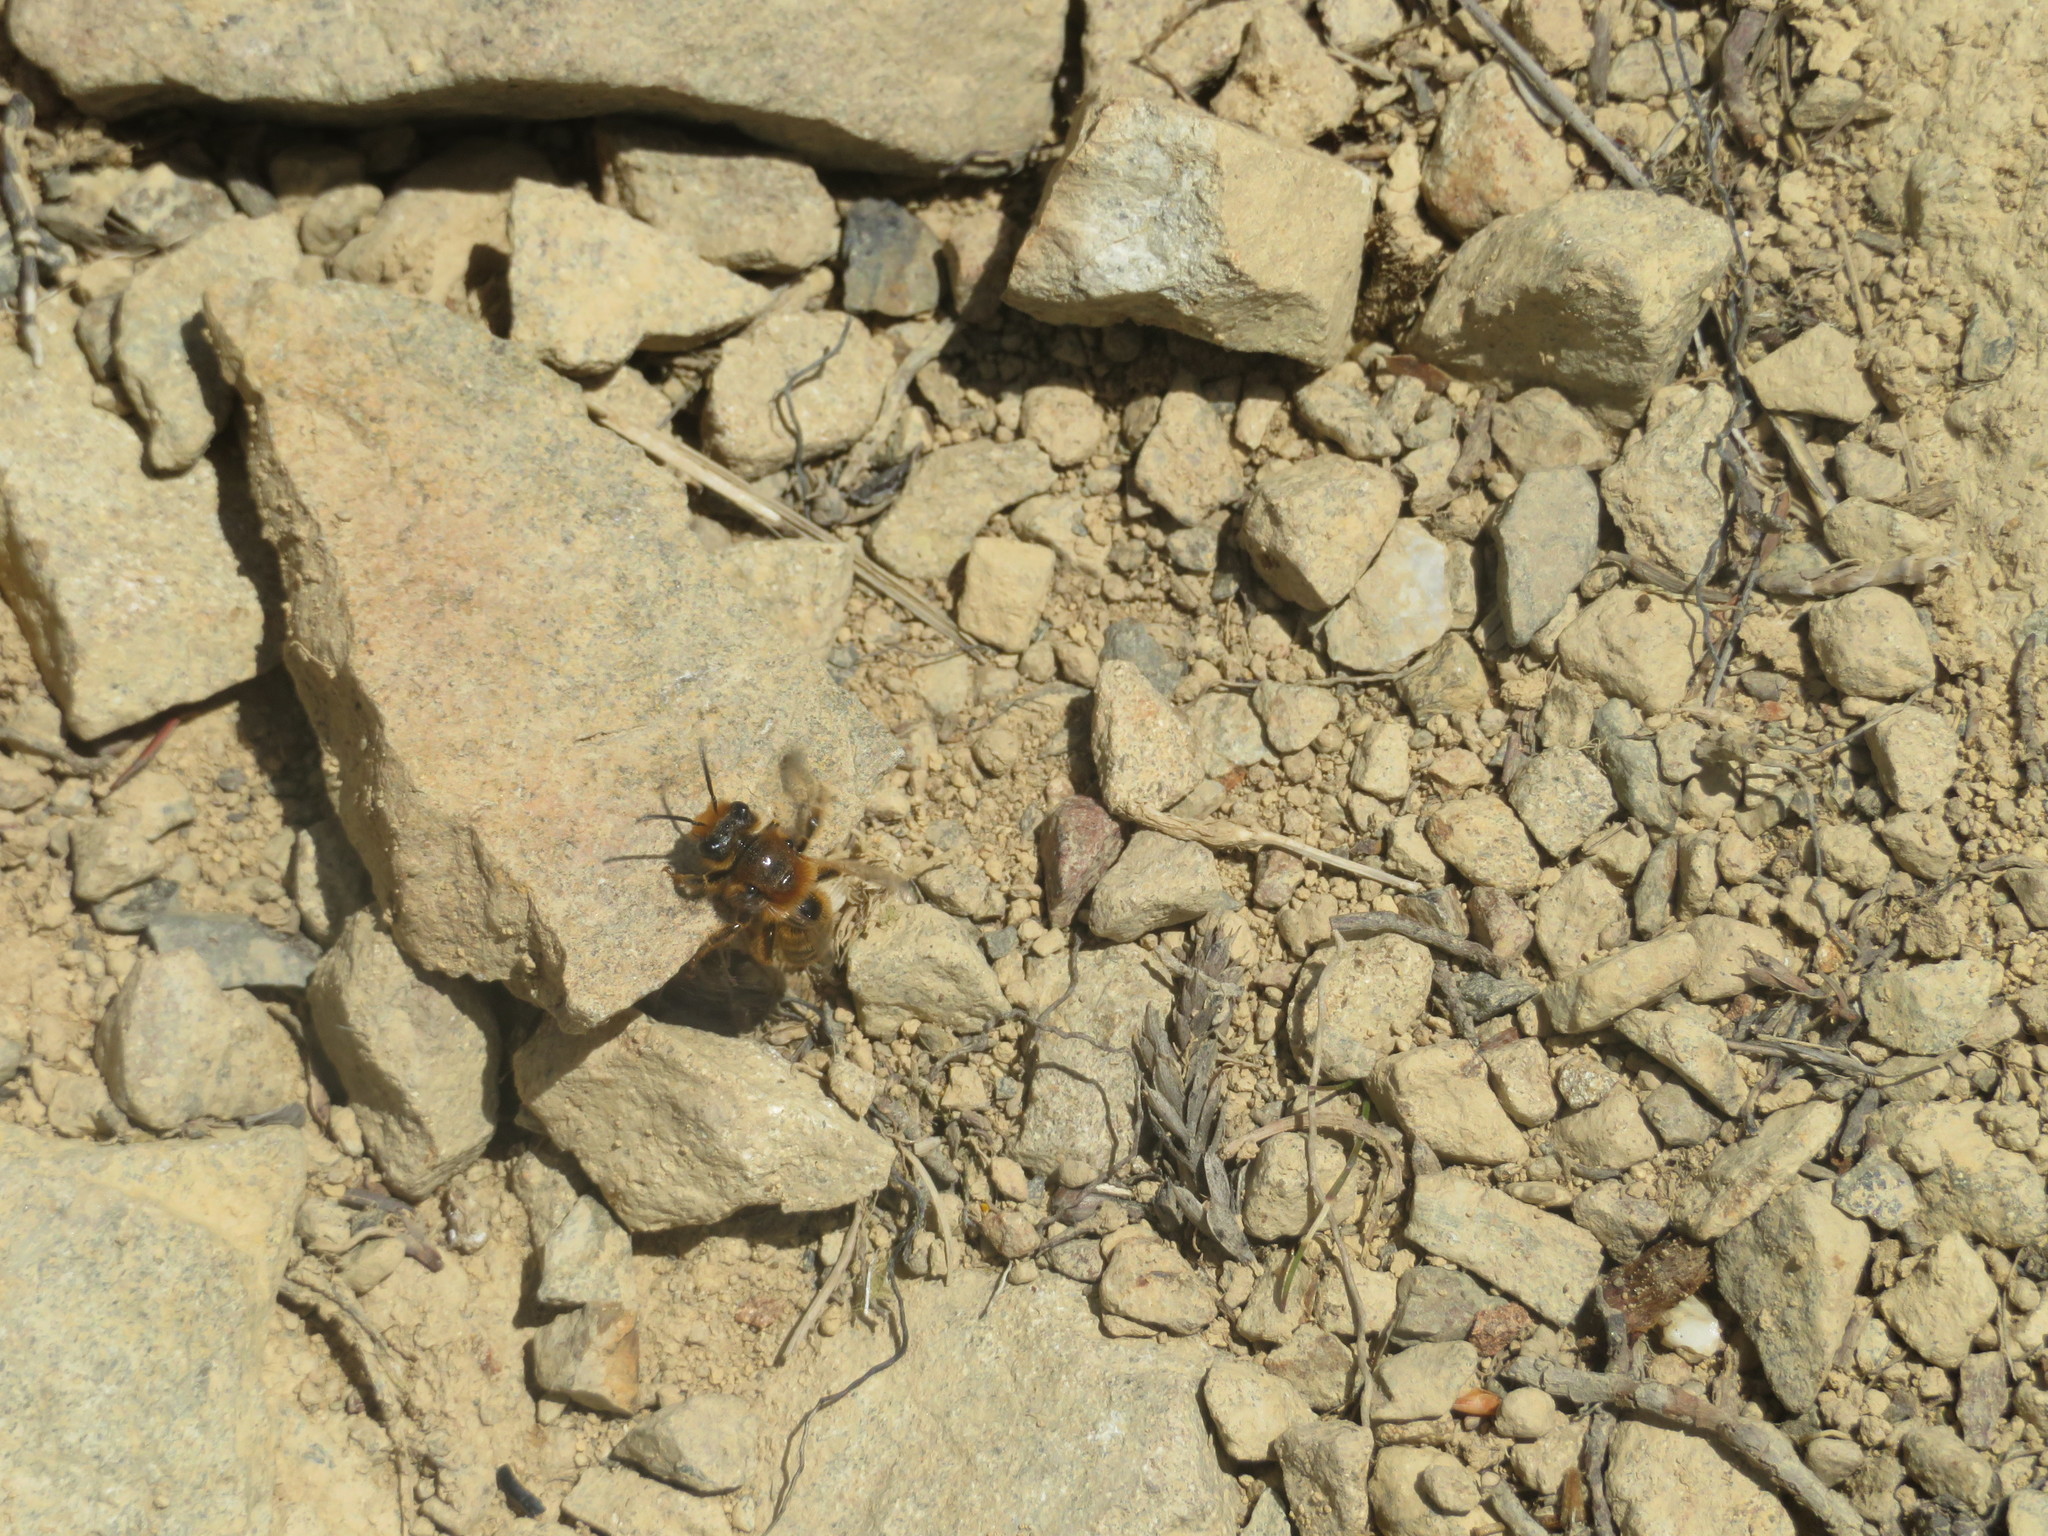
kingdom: Animalia
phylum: Arthropoda
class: Insecta
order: Hymenoptera
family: Colletidae
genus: Leioproctus
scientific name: Leioproctus fulvescens
